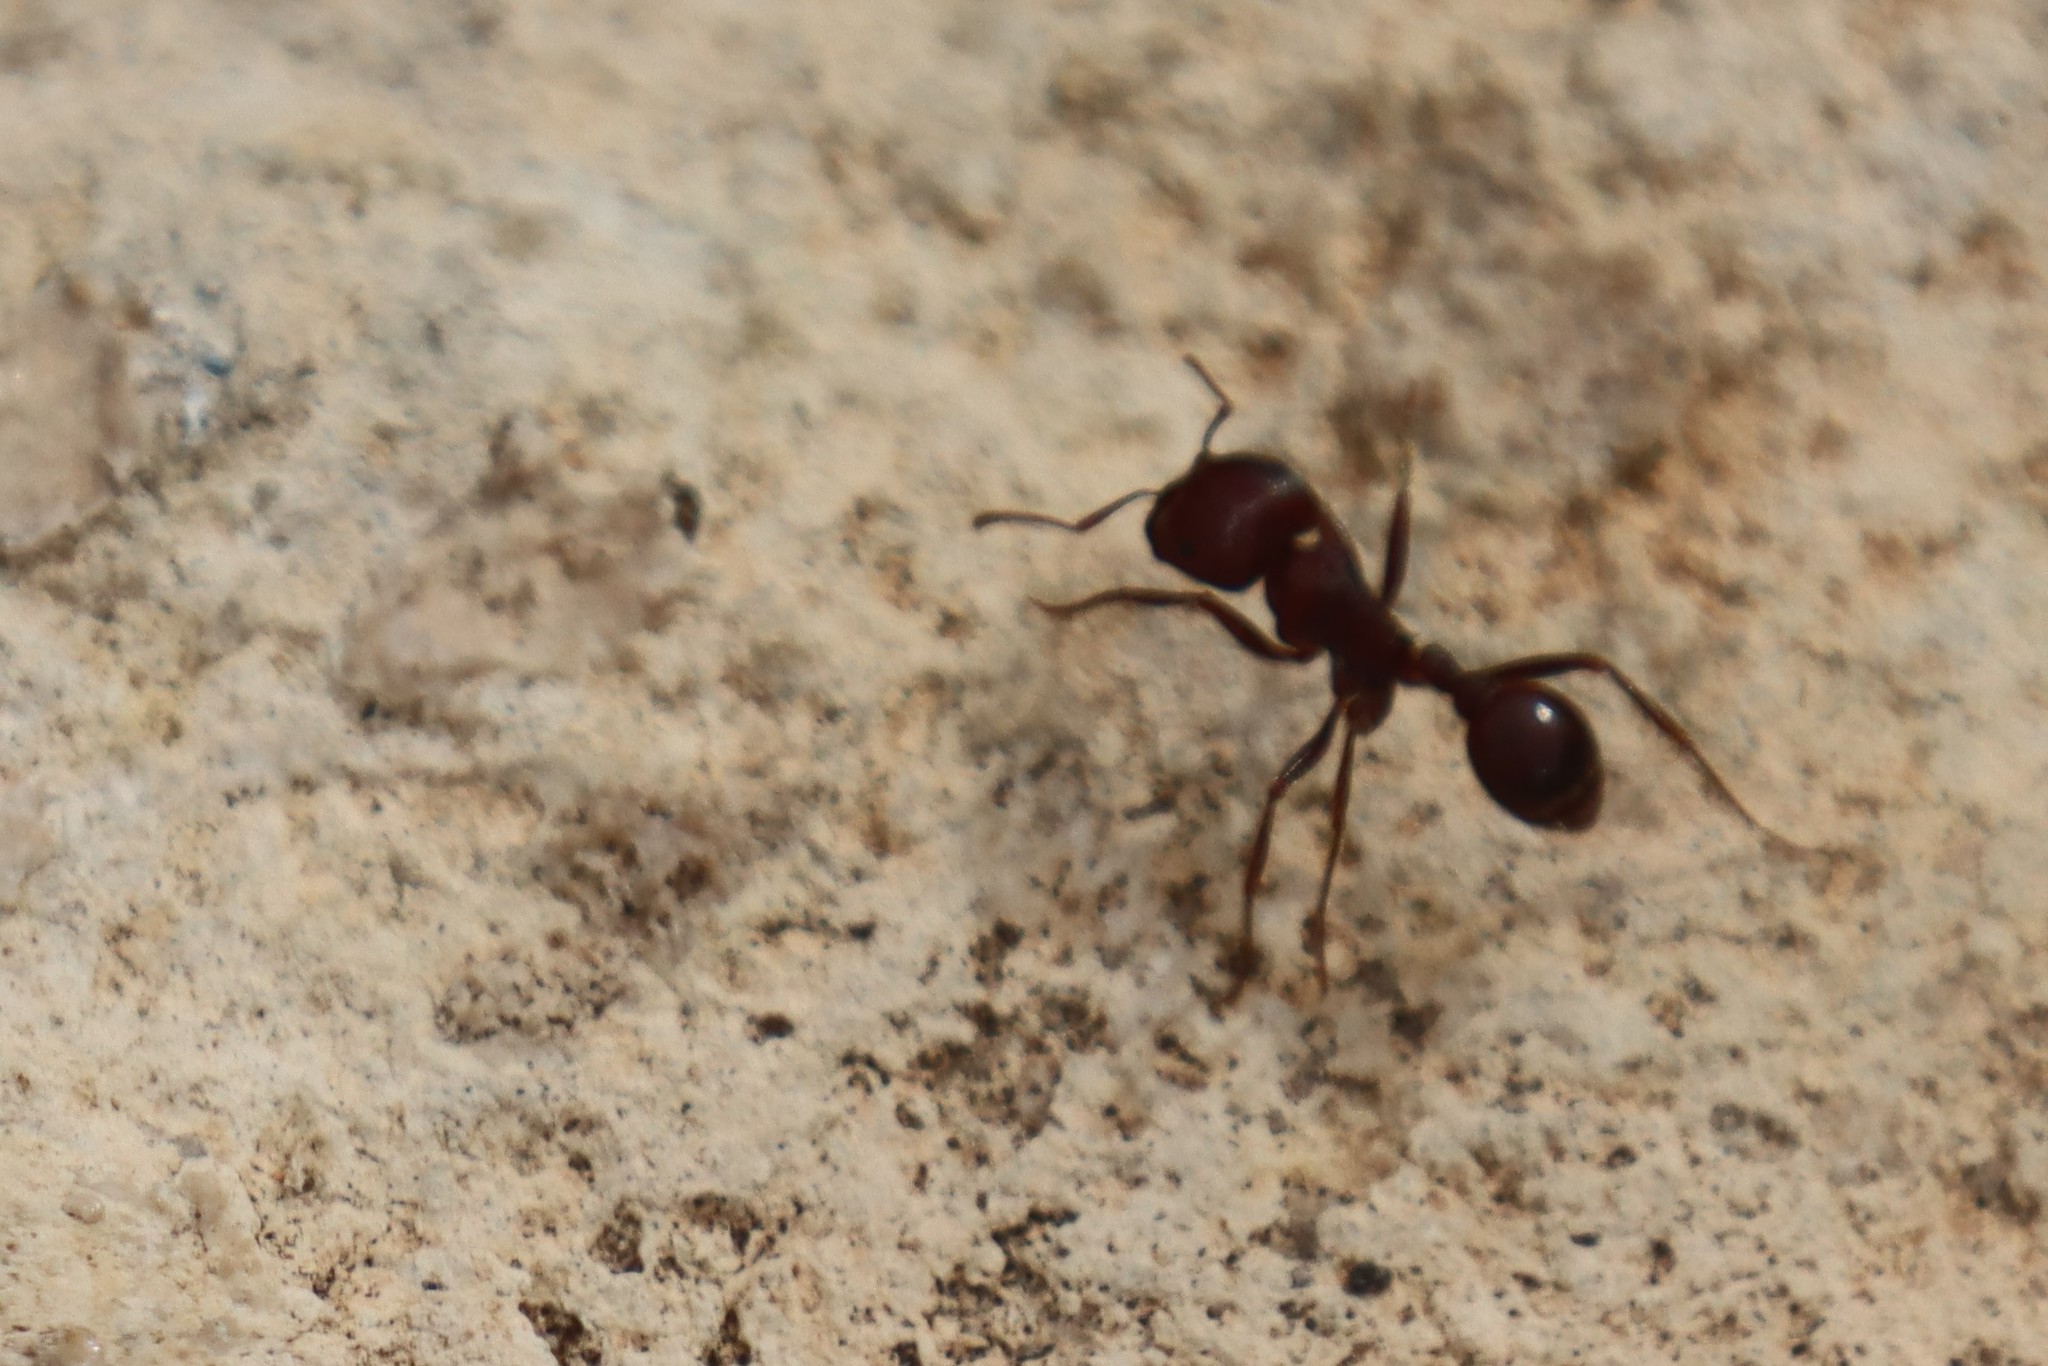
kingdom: Animalia
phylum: Arthropoda
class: Insecta
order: Hymenoptera
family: Formicidae
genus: Pogonomyrmex
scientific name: Pogonomyrmex
